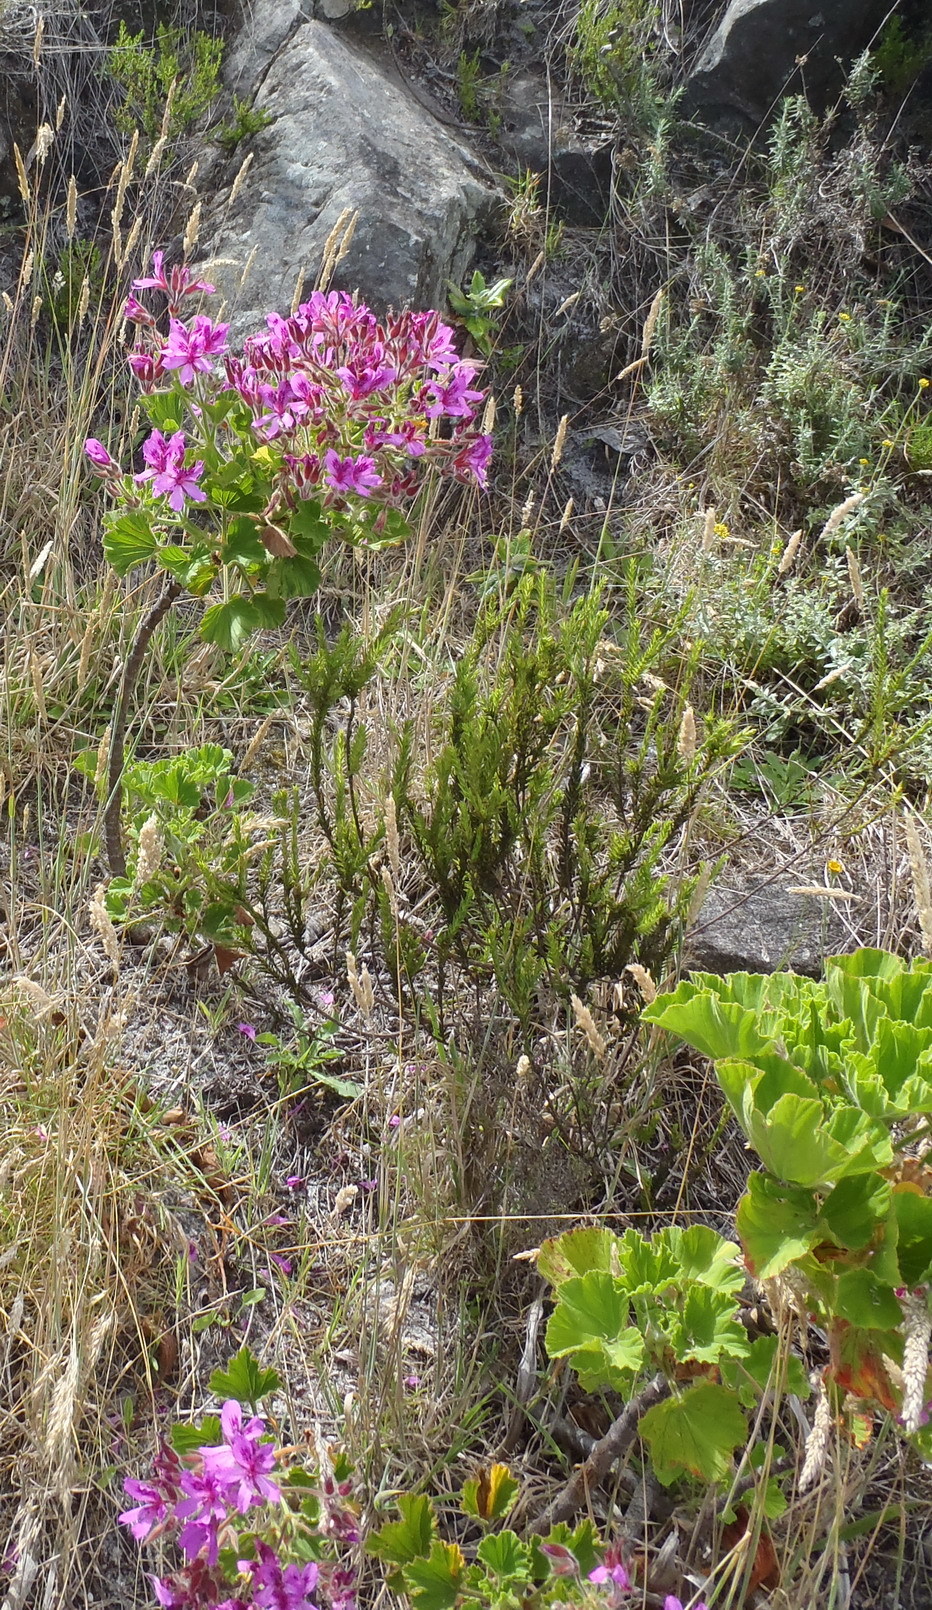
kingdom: Plantae
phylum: Tracheophyta
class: Magnoliopsida
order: Geraniales
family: Geraniaceae
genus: Pelargonium
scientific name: Pelargonium cucullatum
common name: Tree pelargonium
